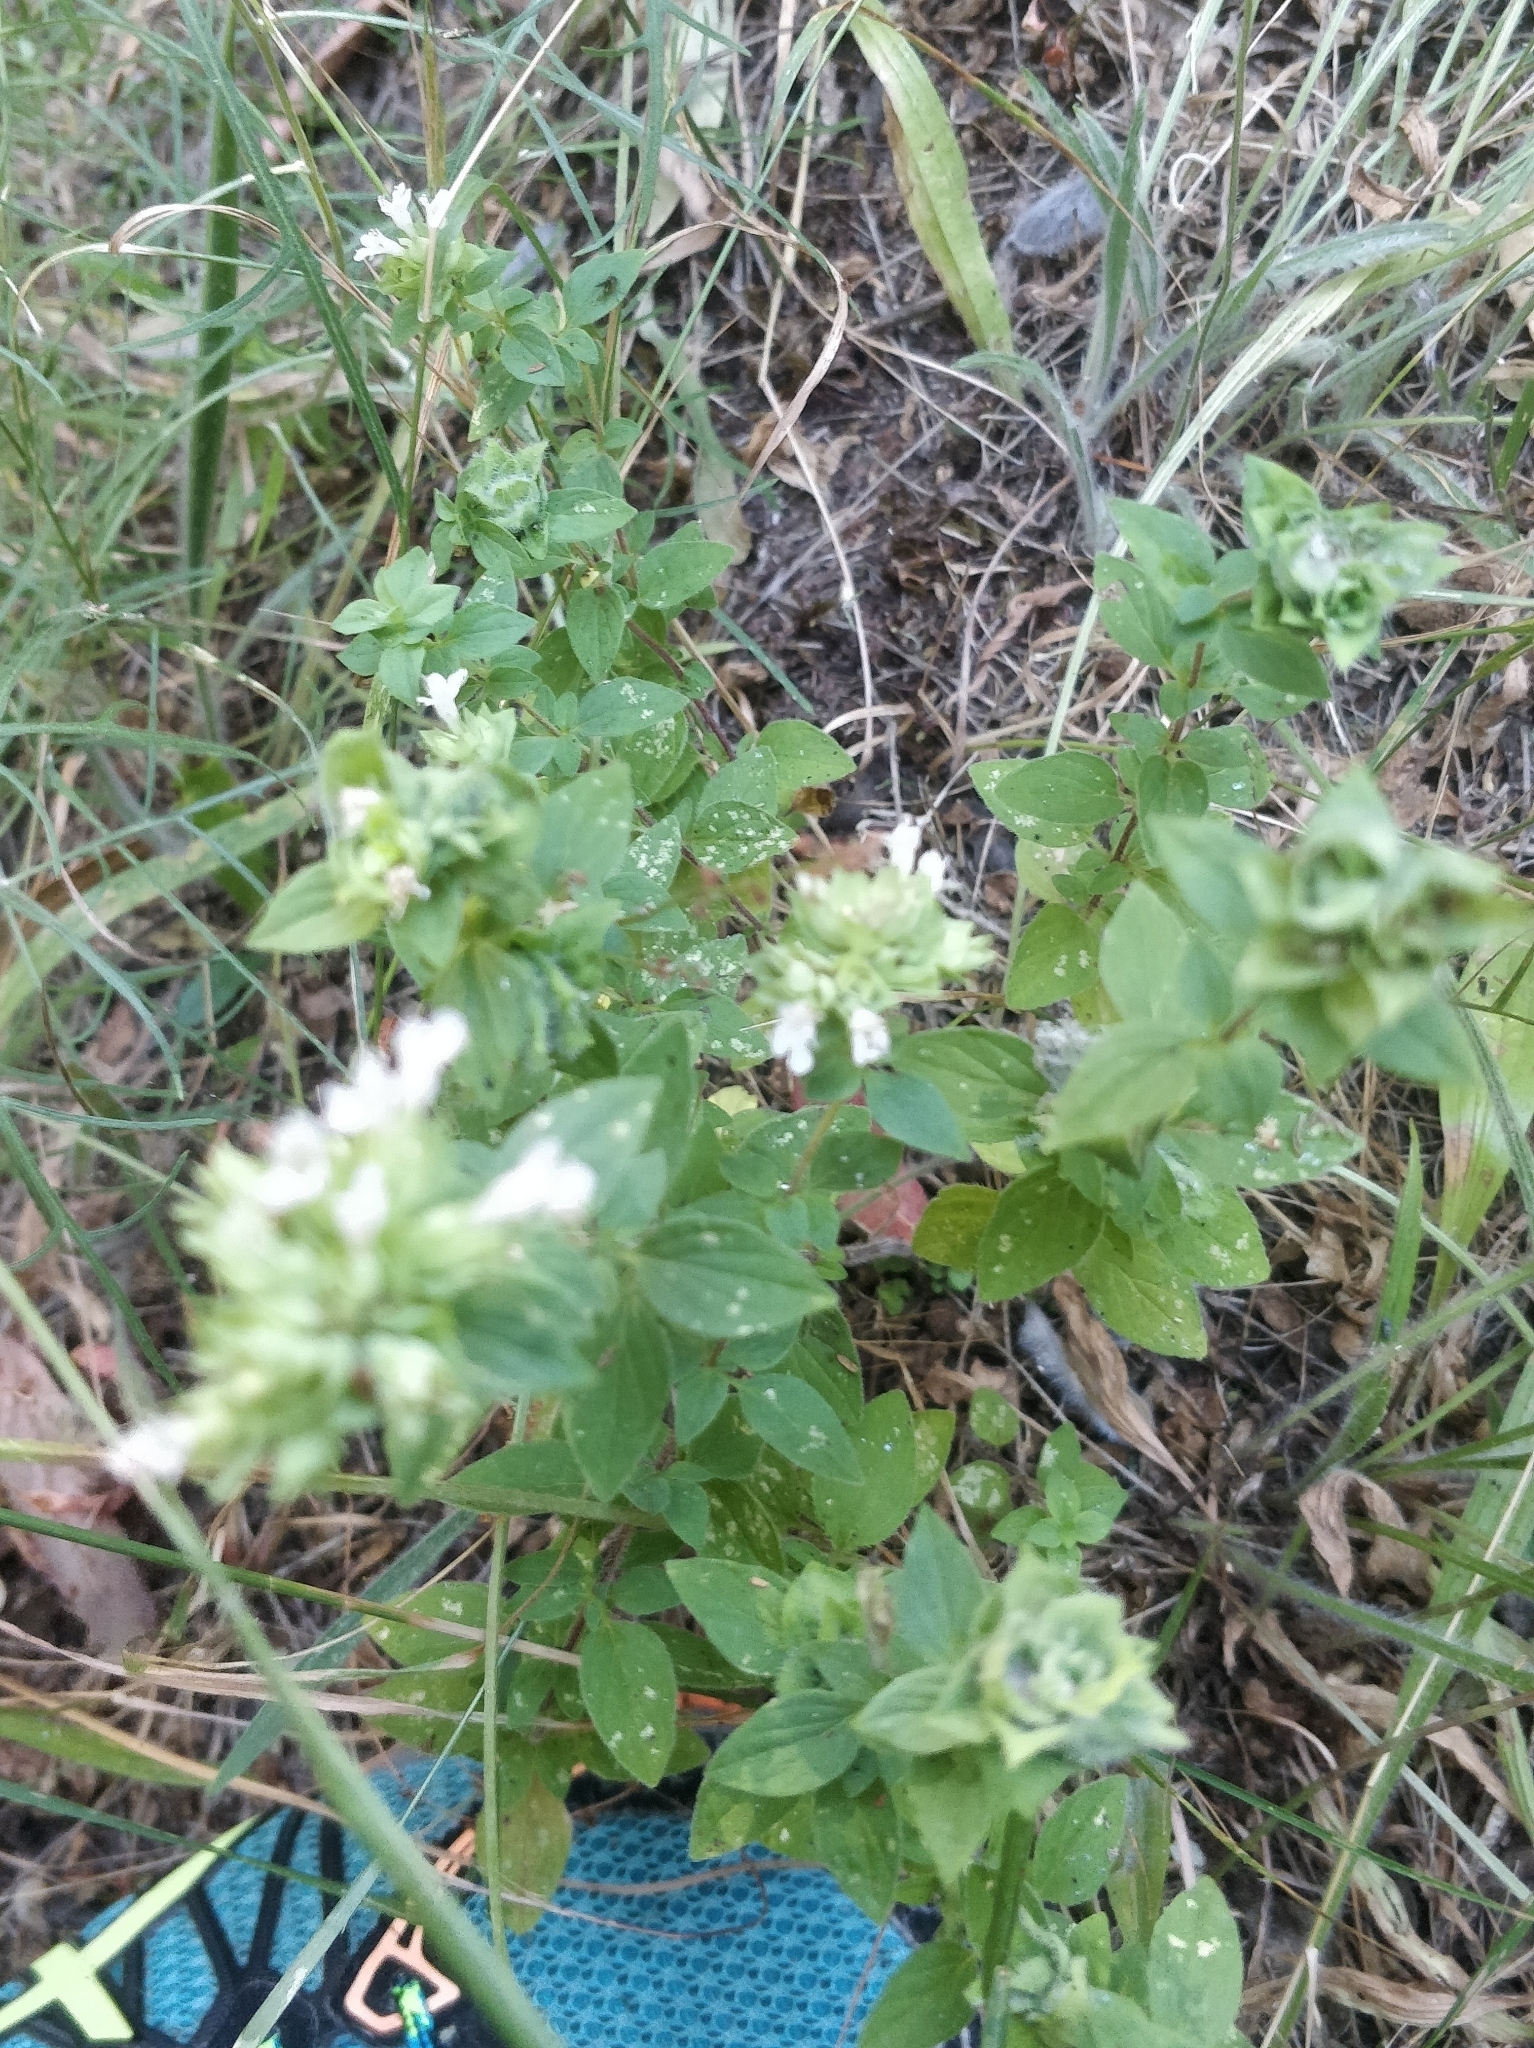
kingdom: Plantae
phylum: Tracheophyta
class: Magnoliopsida
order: Lamiales
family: Lamiaceae
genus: Origanum
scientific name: Origanum vulgare
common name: Wild marjoram
